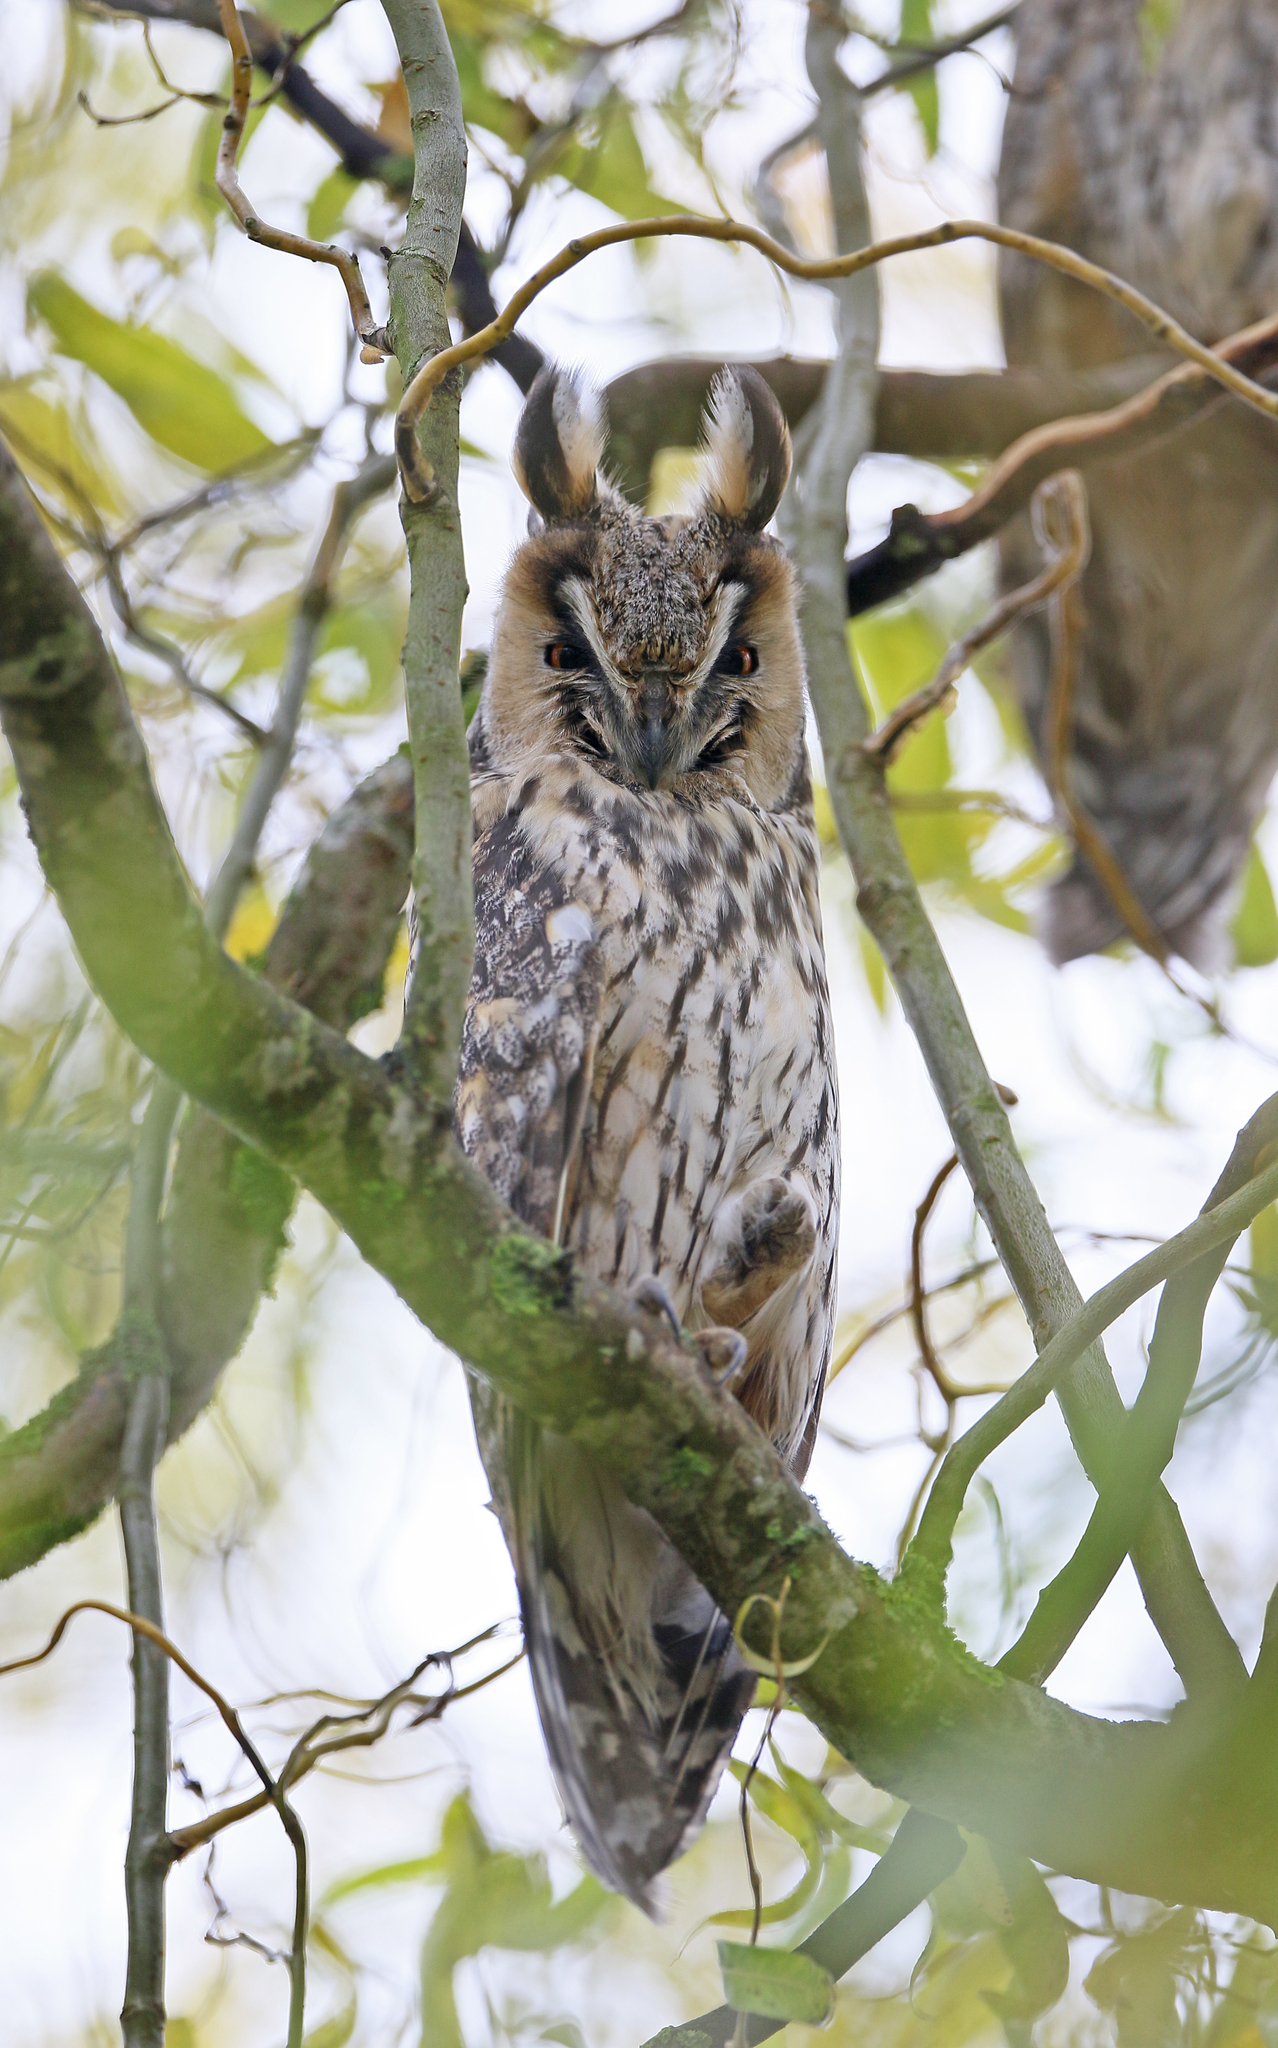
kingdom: Animalia
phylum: Chordata
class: Aves
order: Strigiformes
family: Strigidae
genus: Asio
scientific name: Asio otus
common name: Long-eared owl
